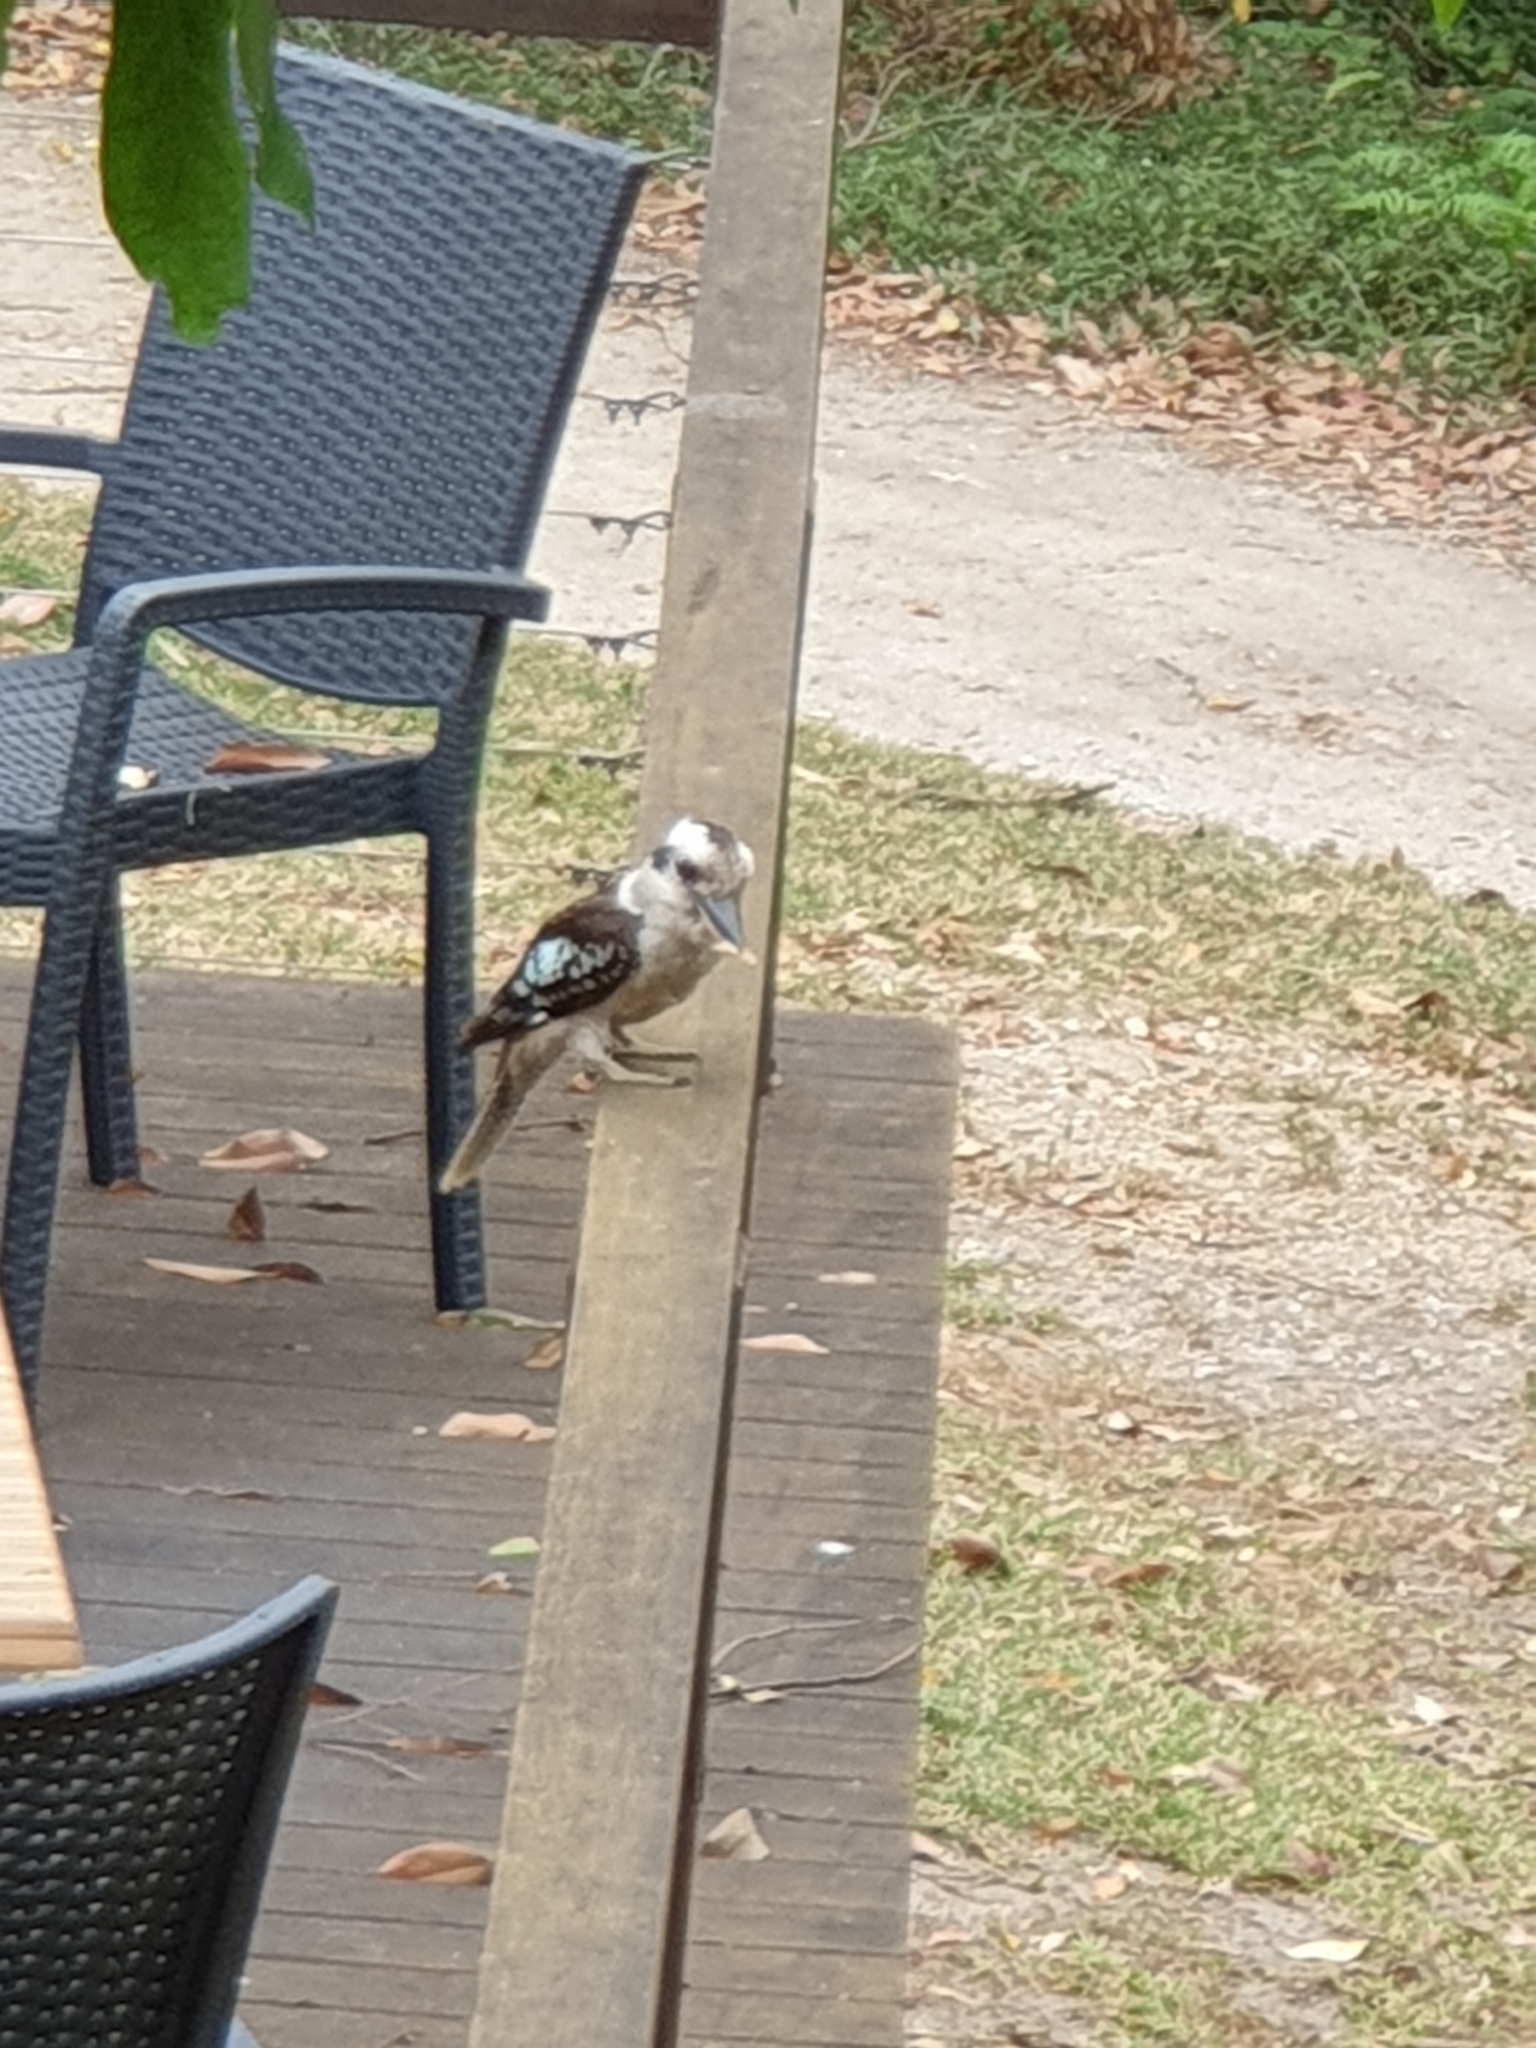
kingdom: Animalia
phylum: Chordata
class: Aves
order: Coraciiformes
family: Alcedinidae
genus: Dacelo
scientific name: Dacelo novaeguineae
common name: Laughing kookaburra
